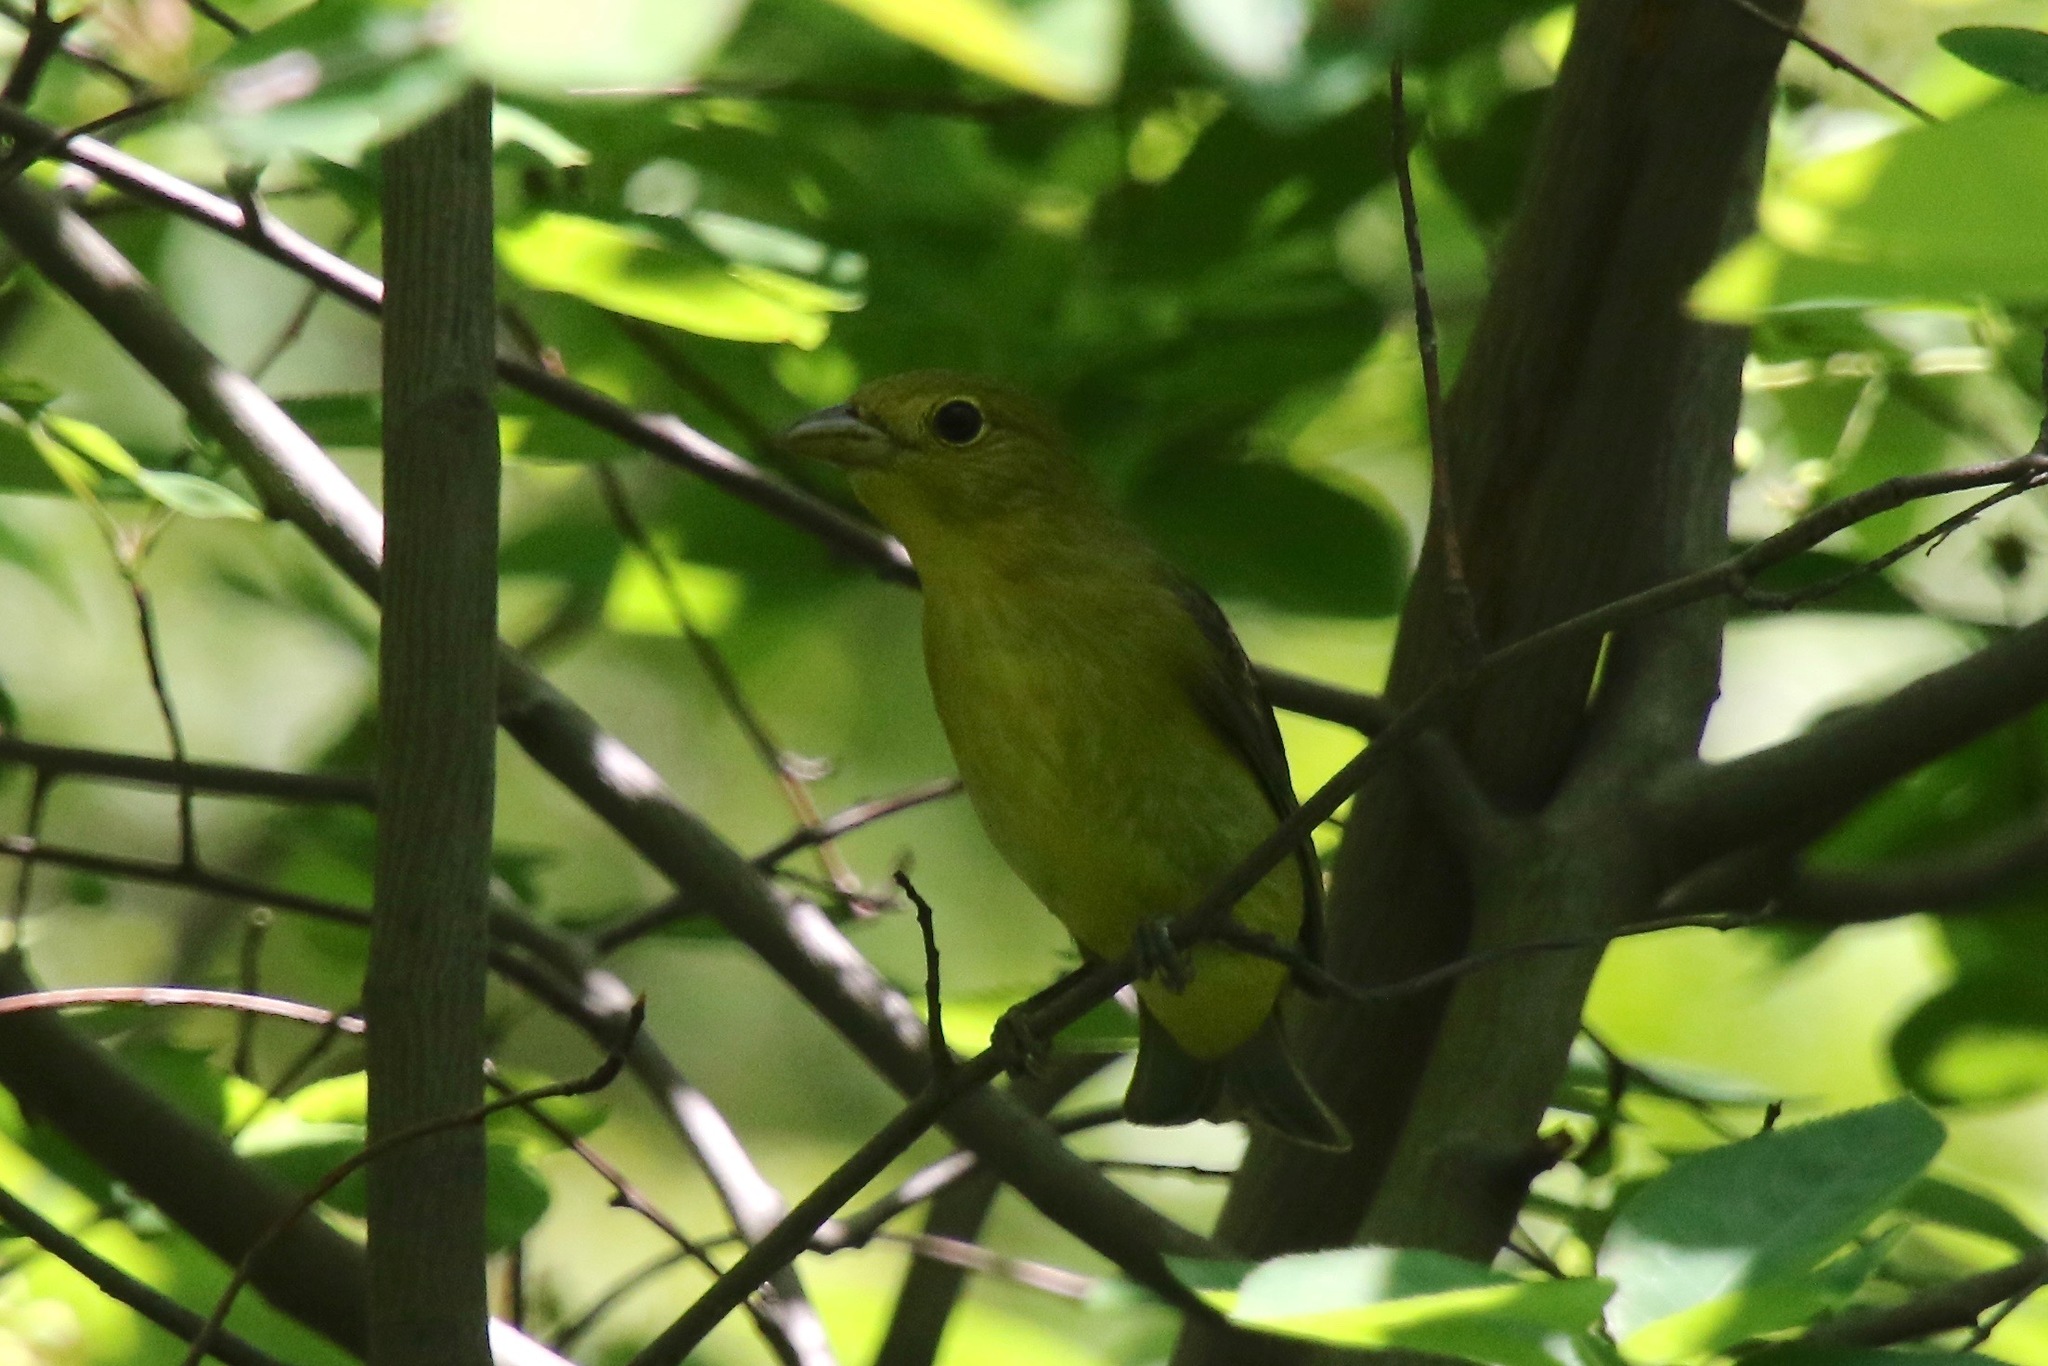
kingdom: Animalia
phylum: Chordata
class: Aves
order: Passeriformes
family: Cardinalidae
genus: Piranga
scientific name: Piranga olivacea
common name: Scarlet tanager
